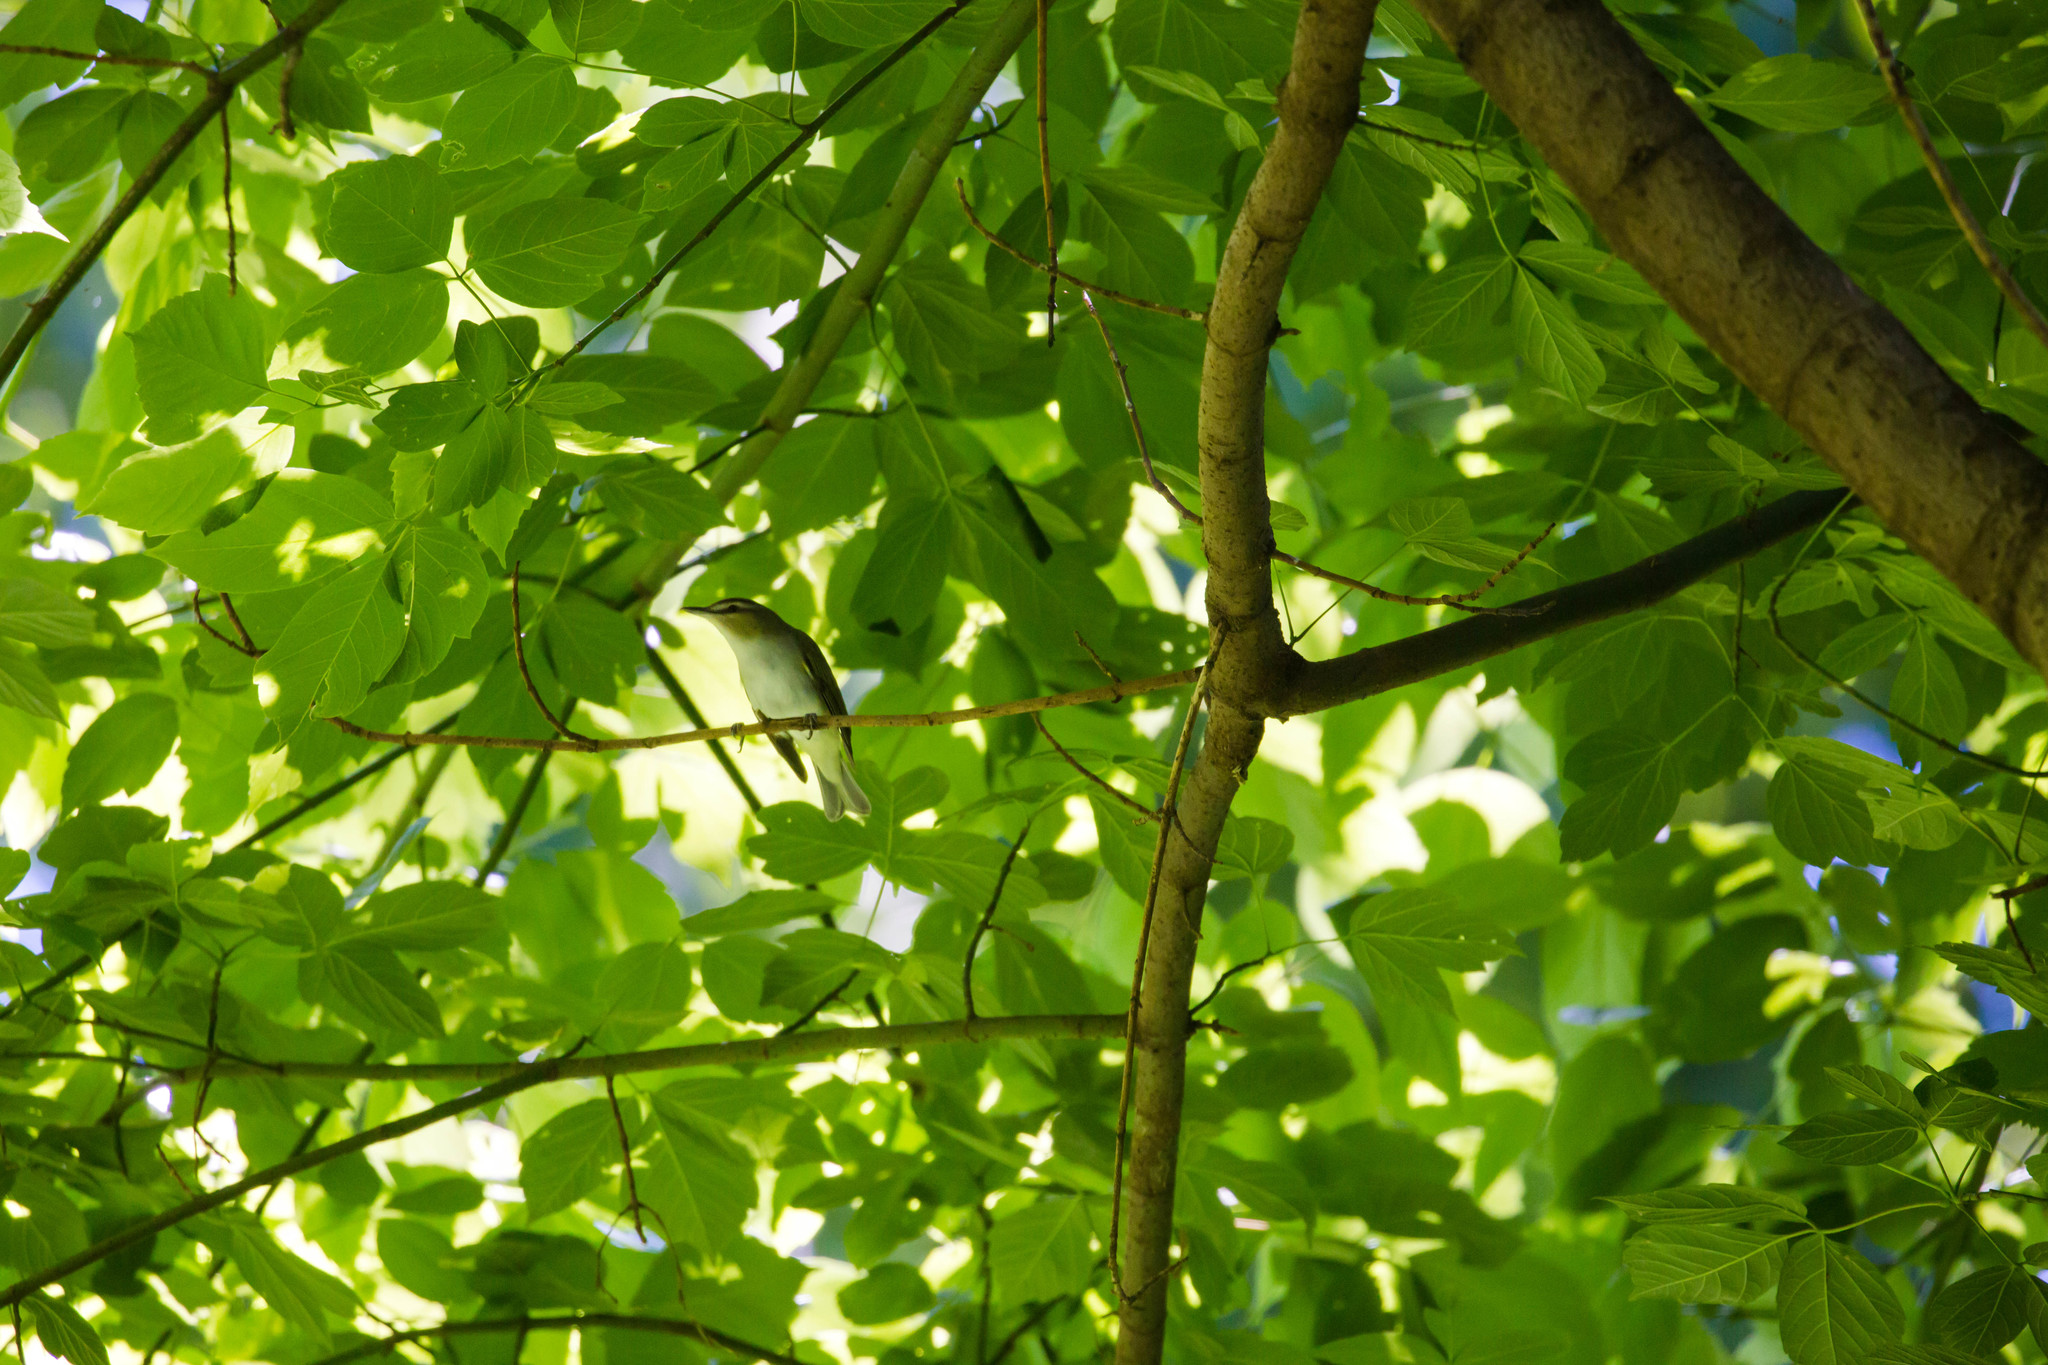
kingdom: Animalia
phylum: Chordata
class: Aves
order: Passeriformes
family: Vireonidae
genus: Vireo
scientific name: Vireo olivaceus
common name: Red-eyed vireo
